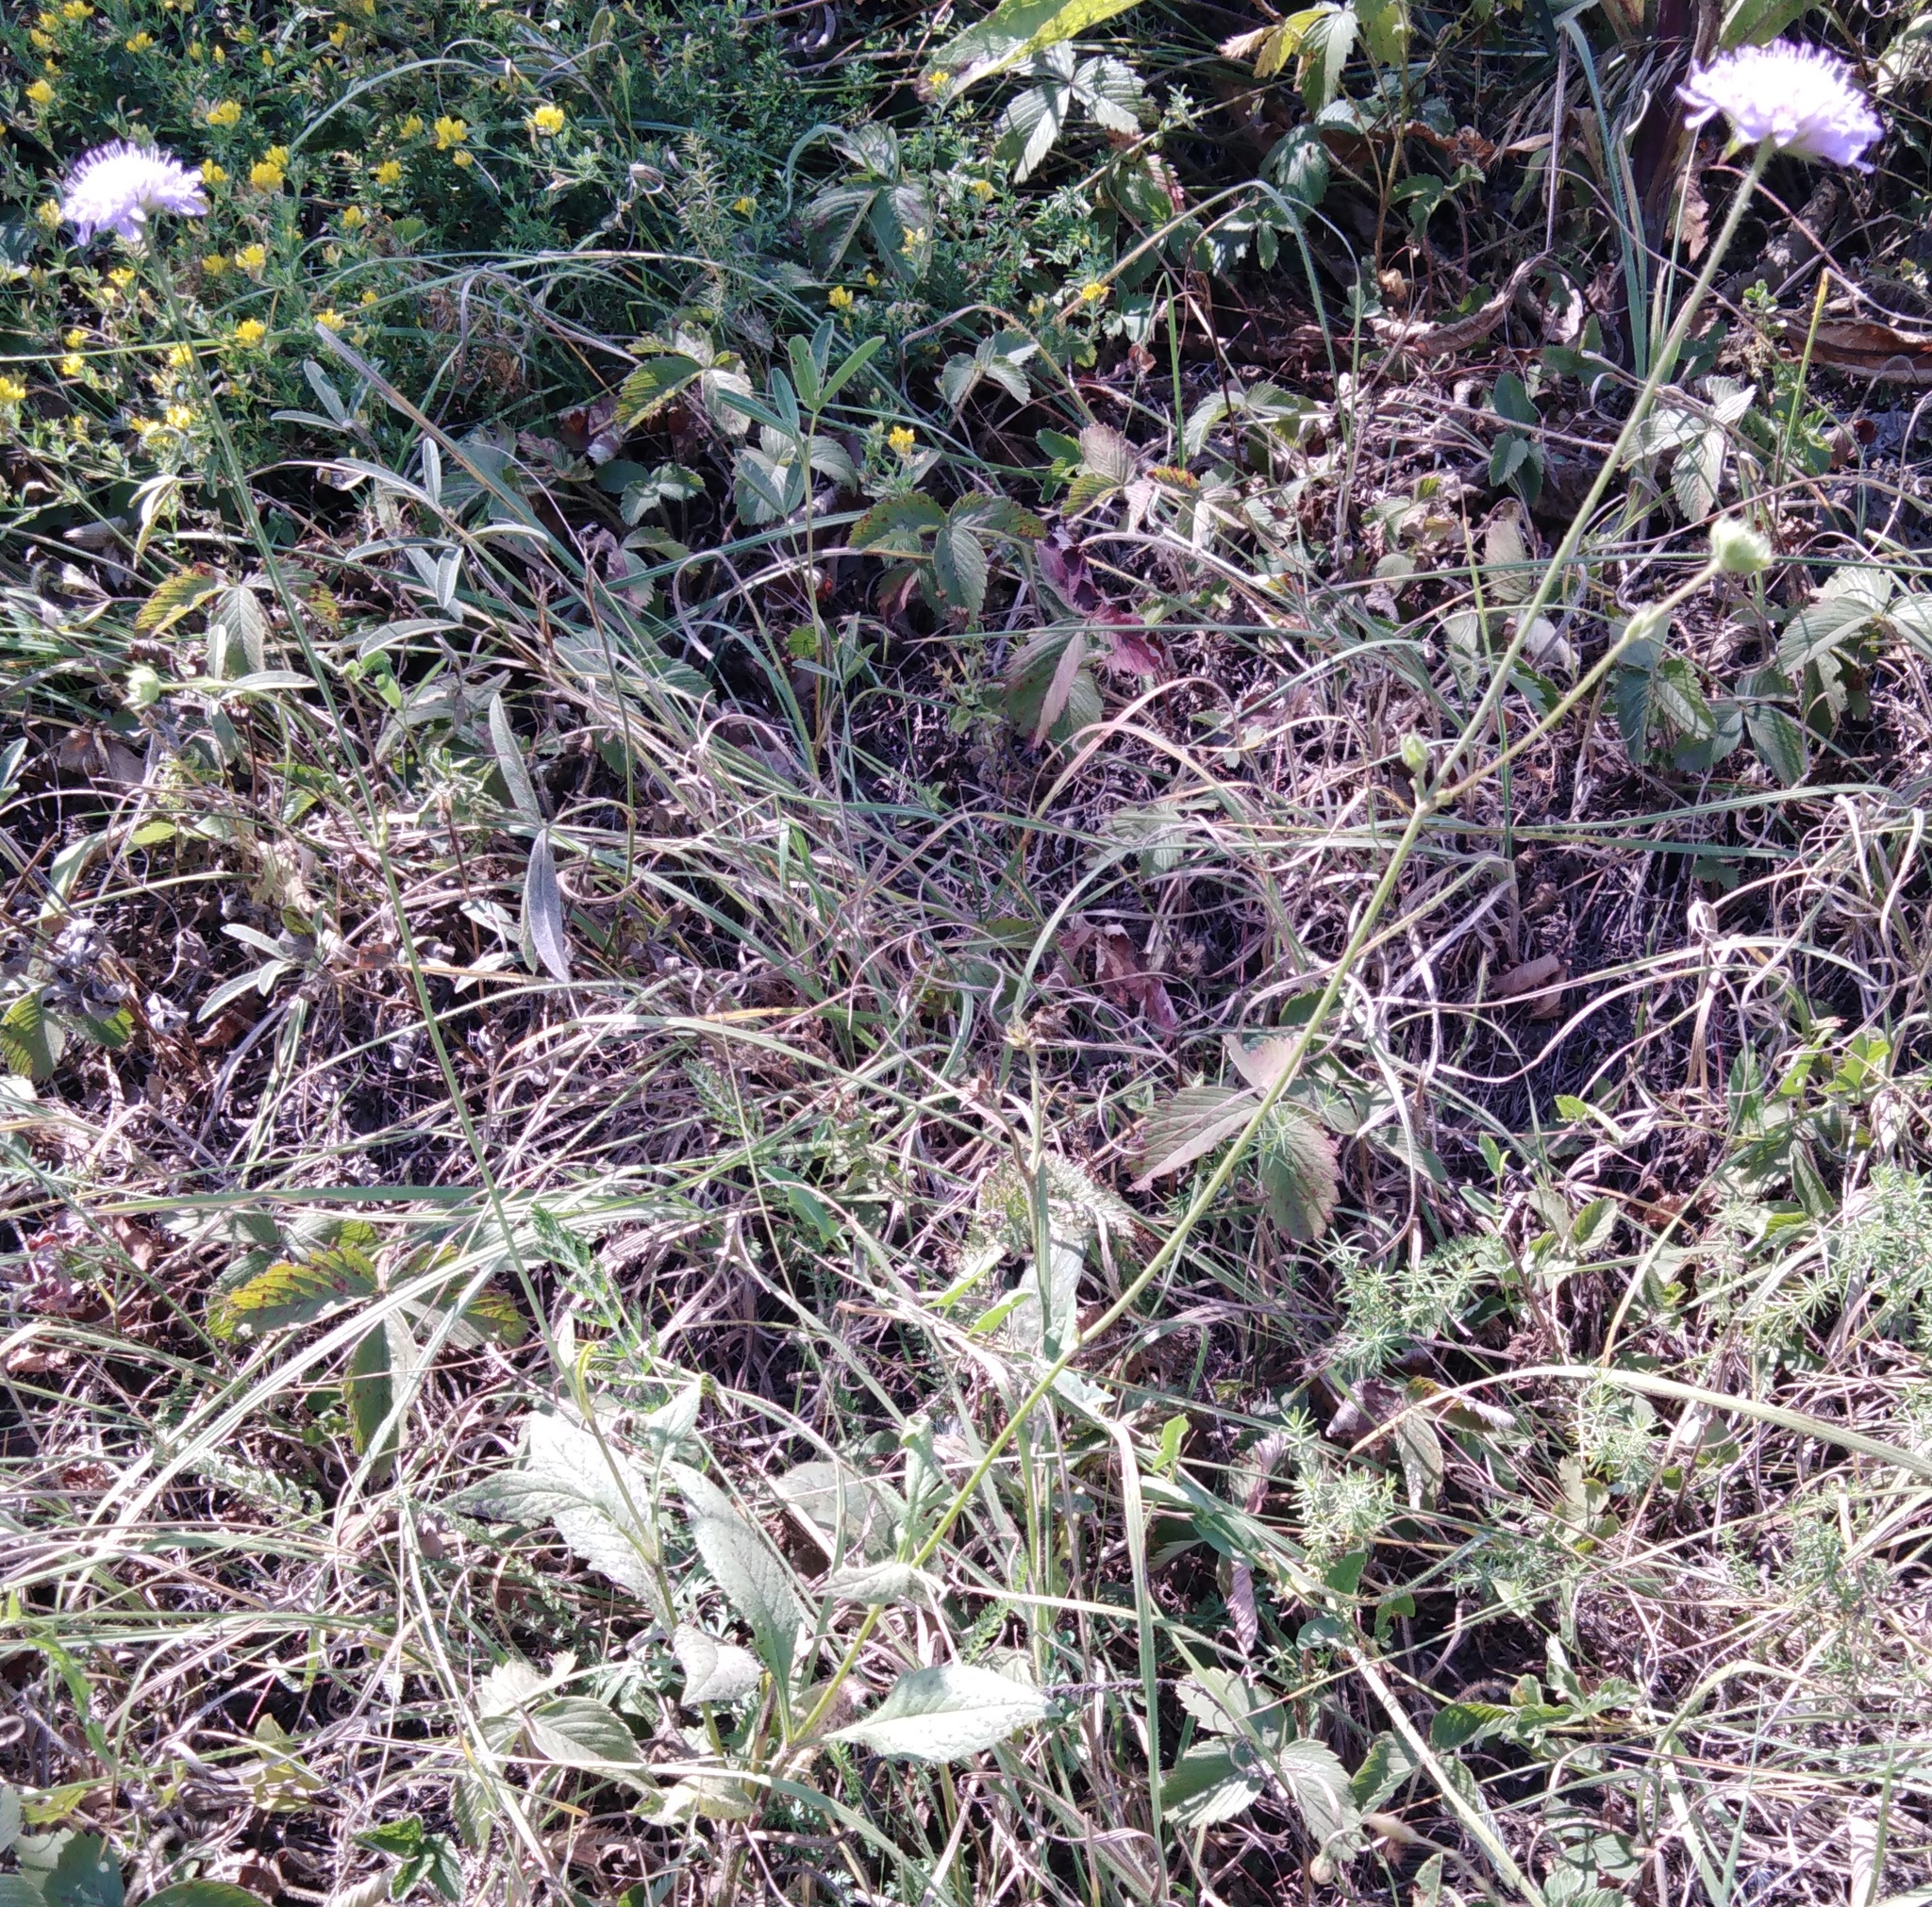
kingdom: Plantae
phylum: Tracheophyta
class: Magnoliopsida
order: Dipsacales
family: Caprifoliaceae
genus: Knautia
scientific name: Knautia arvensis
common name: Field scabiosa
